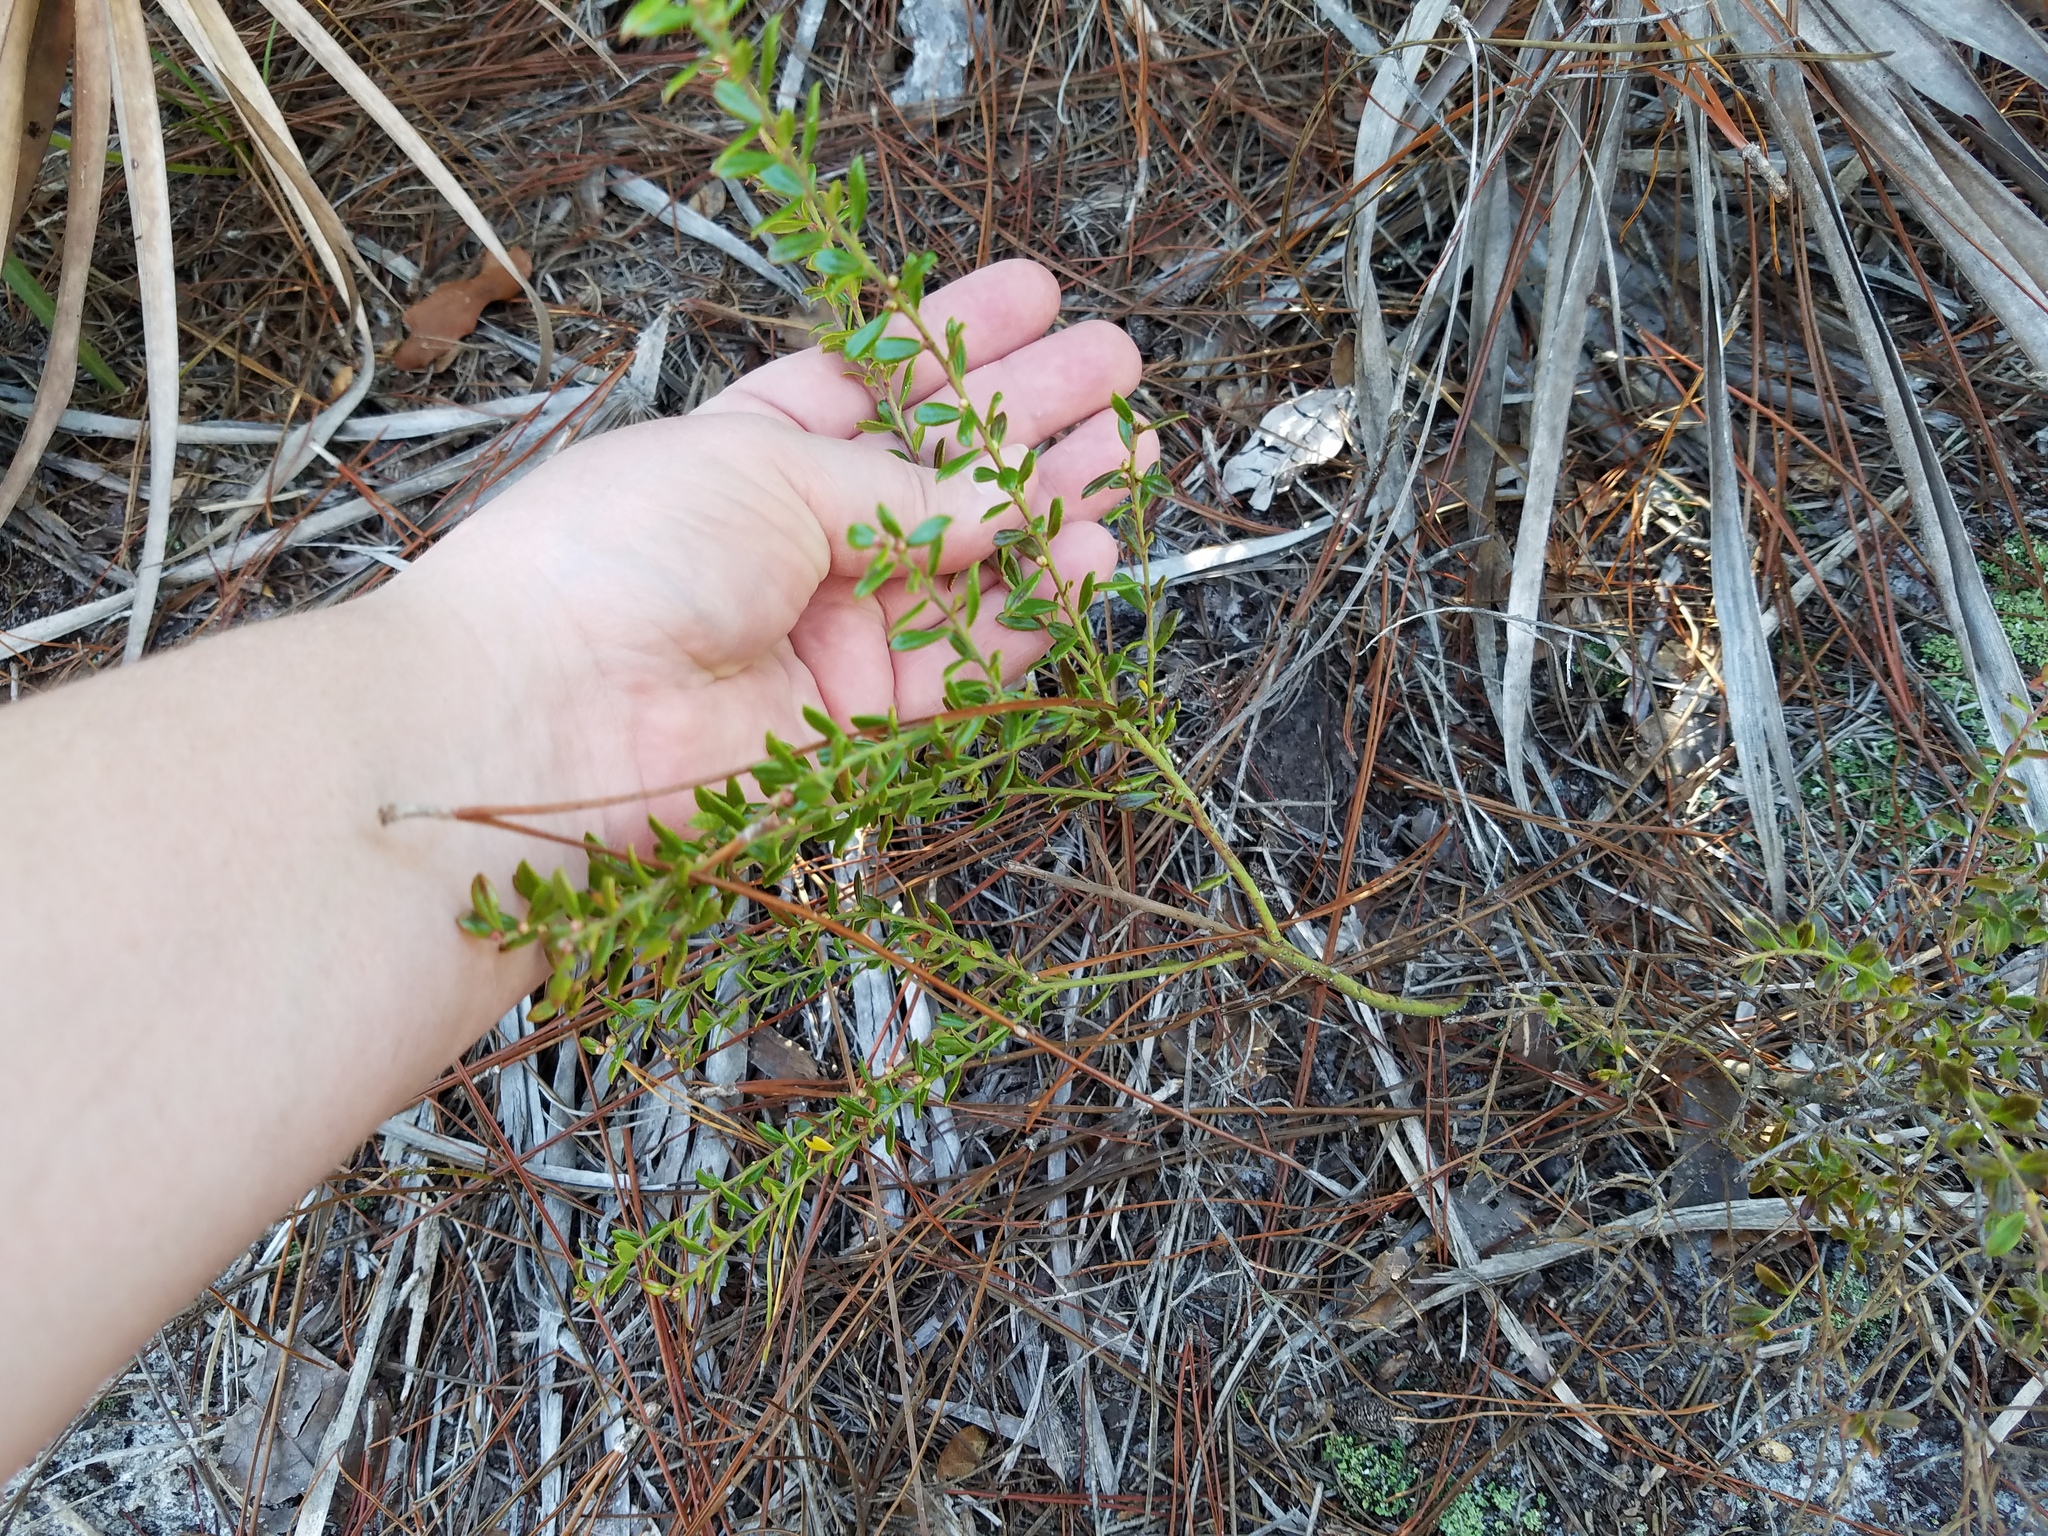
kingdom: Plantae
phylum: Tracheophyta
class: Magnoliopsida
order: Ericales
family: Ericaceae
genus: Vaccinium
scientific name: Vaccinium myrsinites
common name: Evergreen blueberry
